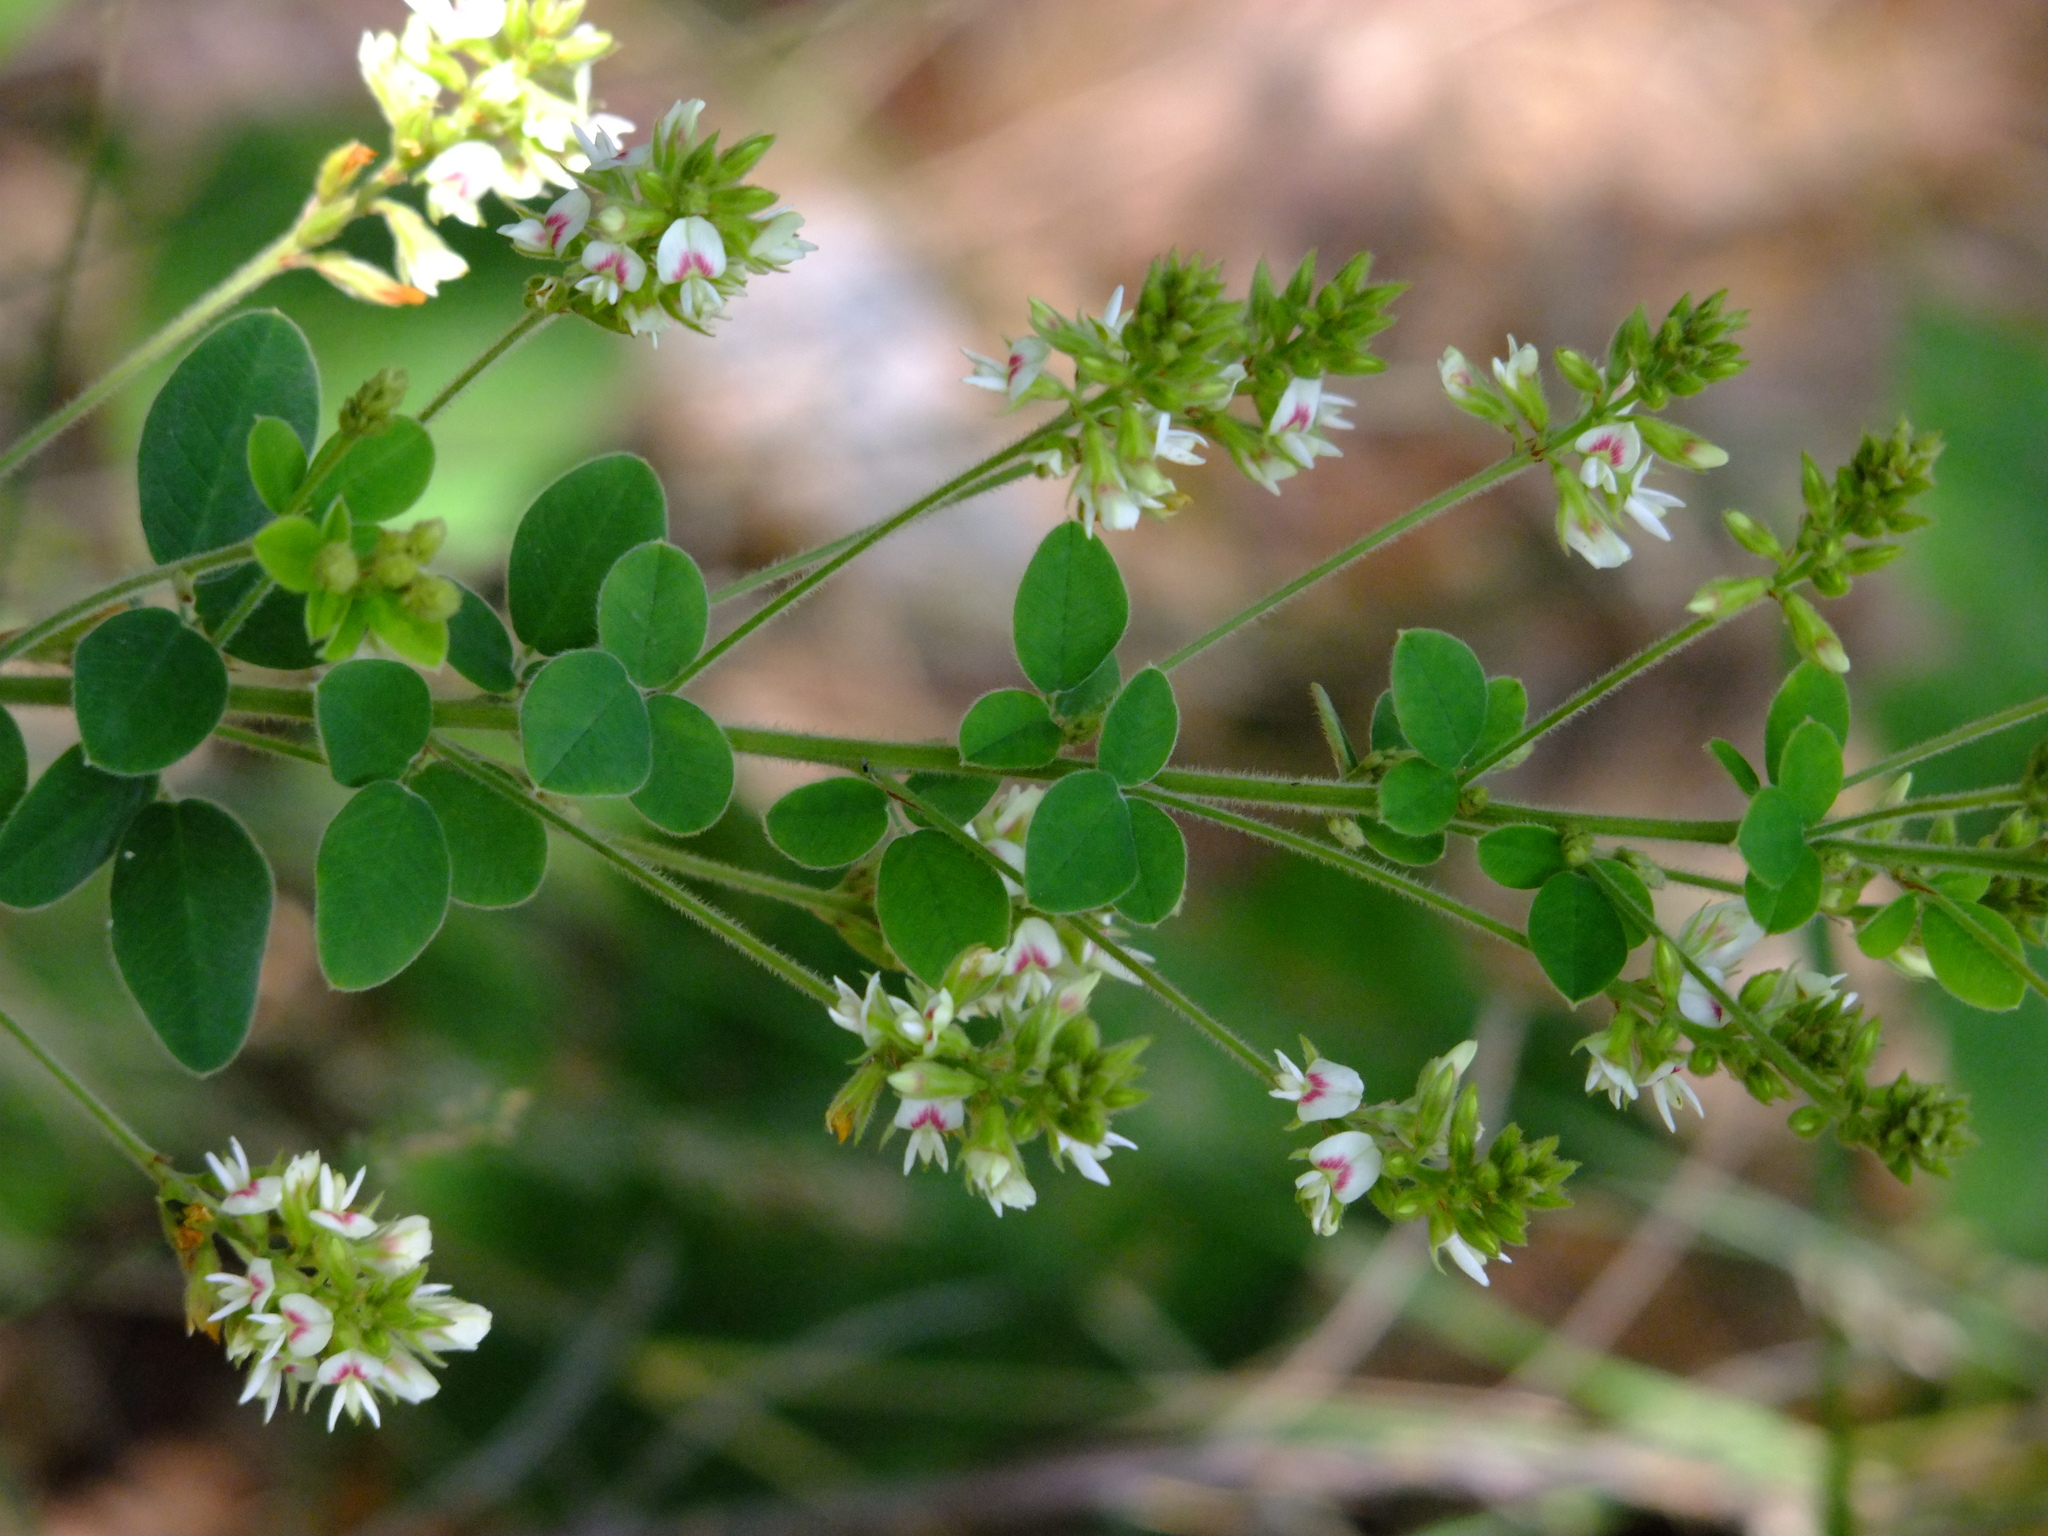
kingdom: Plantae
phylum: Tracheophyta
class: Magnoliopsida
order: Fabales
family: Fabaceae
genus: Lespedeza
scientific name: Lespedeza hirta
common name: Hairy lespedeza
